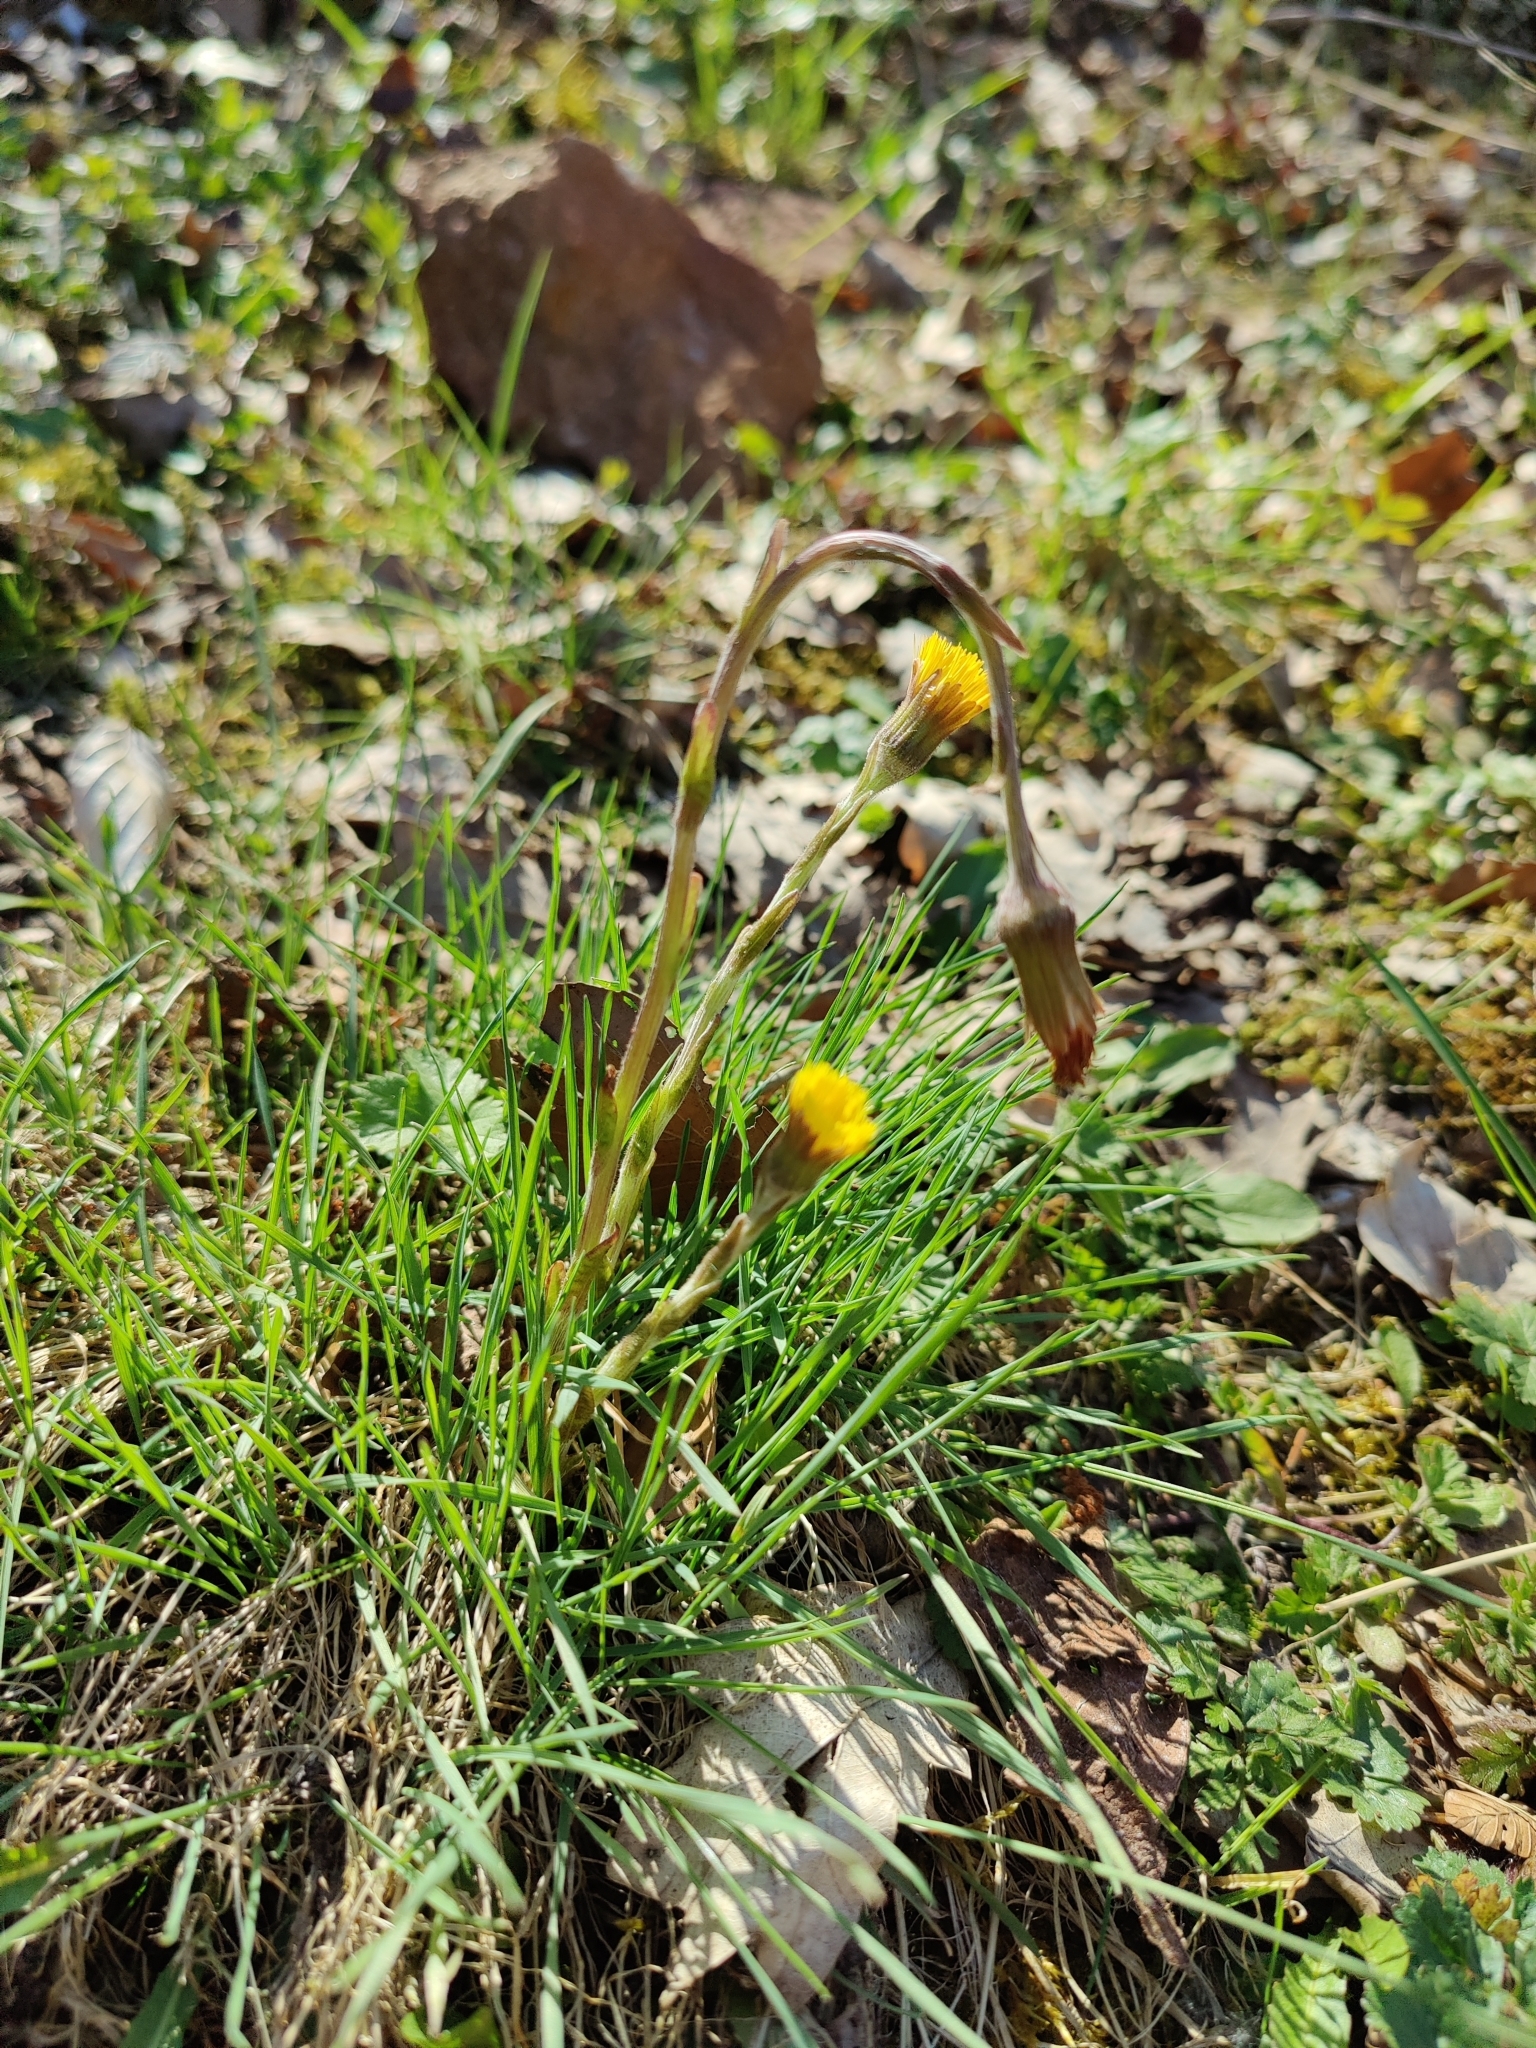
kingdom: Plantae
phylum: Tracheophyta
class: Magnoliopsida
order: Asterales
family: Asteraceae
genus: Tussilago
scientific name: Tussilago farfara
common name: Coltsfoot
